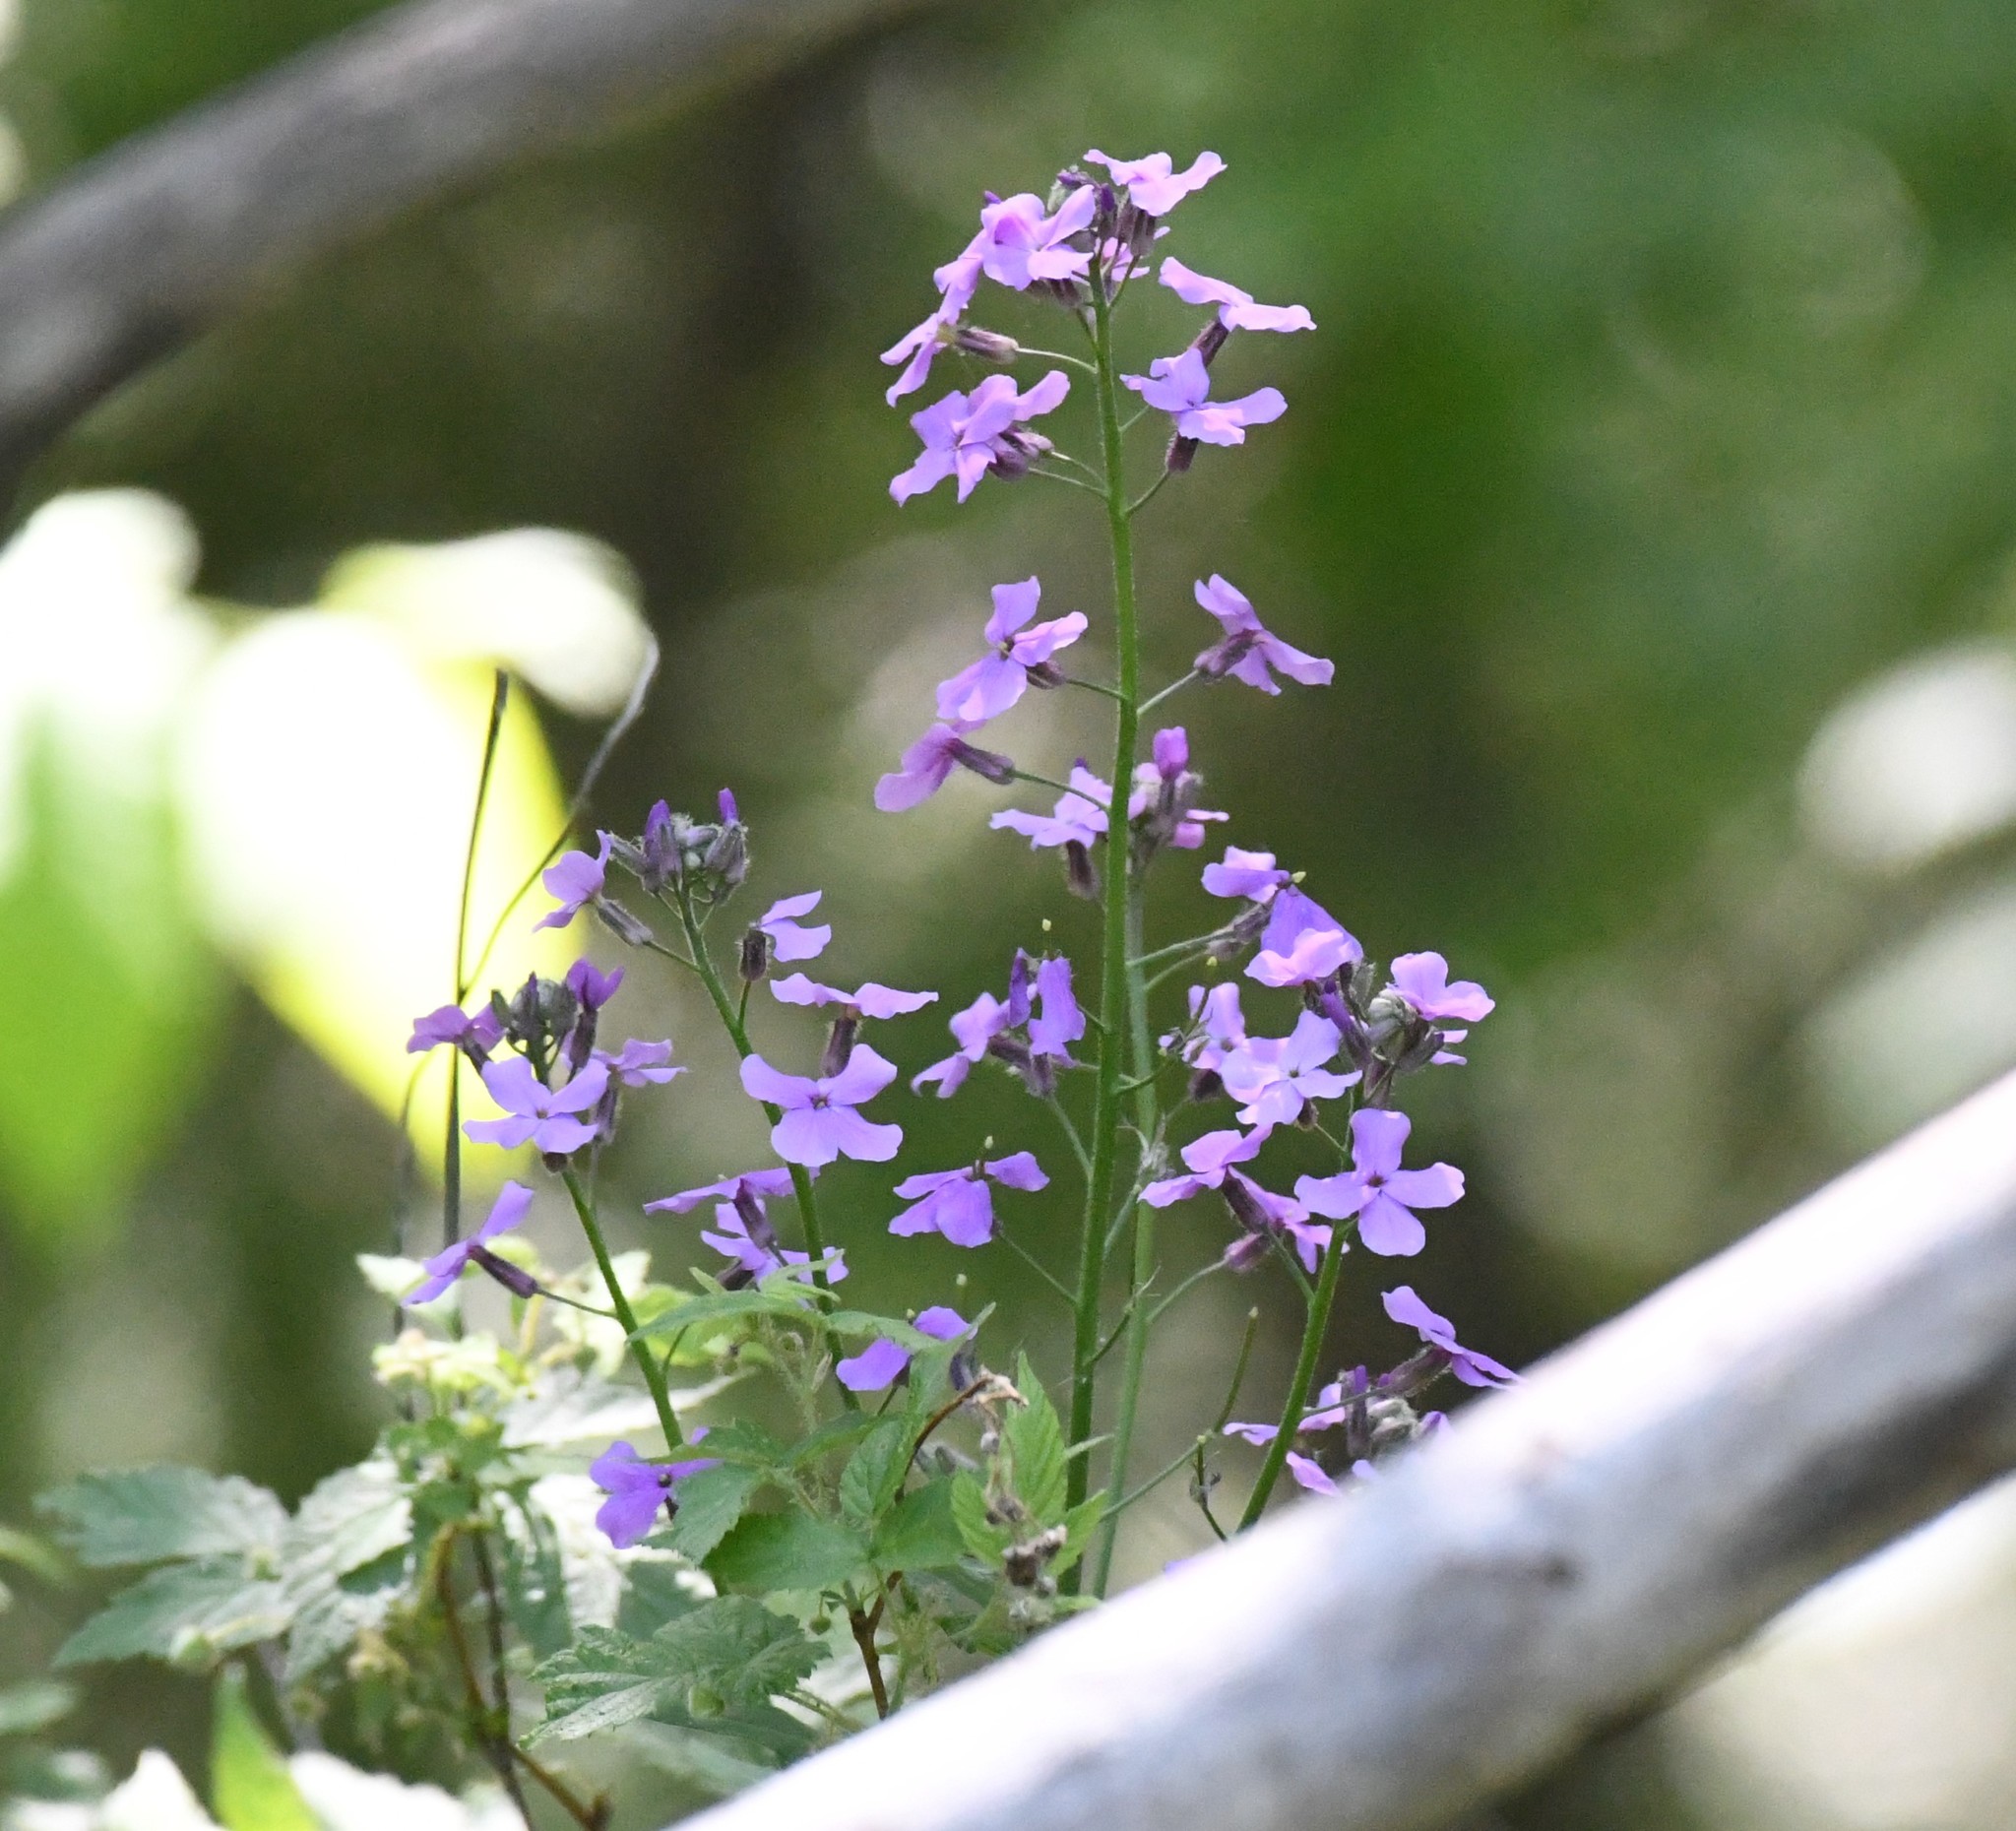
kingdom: Plantae
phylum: Tracheophyta
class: Magnoliopsida
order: Brassicales
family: Brassicaceae
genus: Hesperis
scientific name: Hesperis matronalis
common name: Dame's-violet
